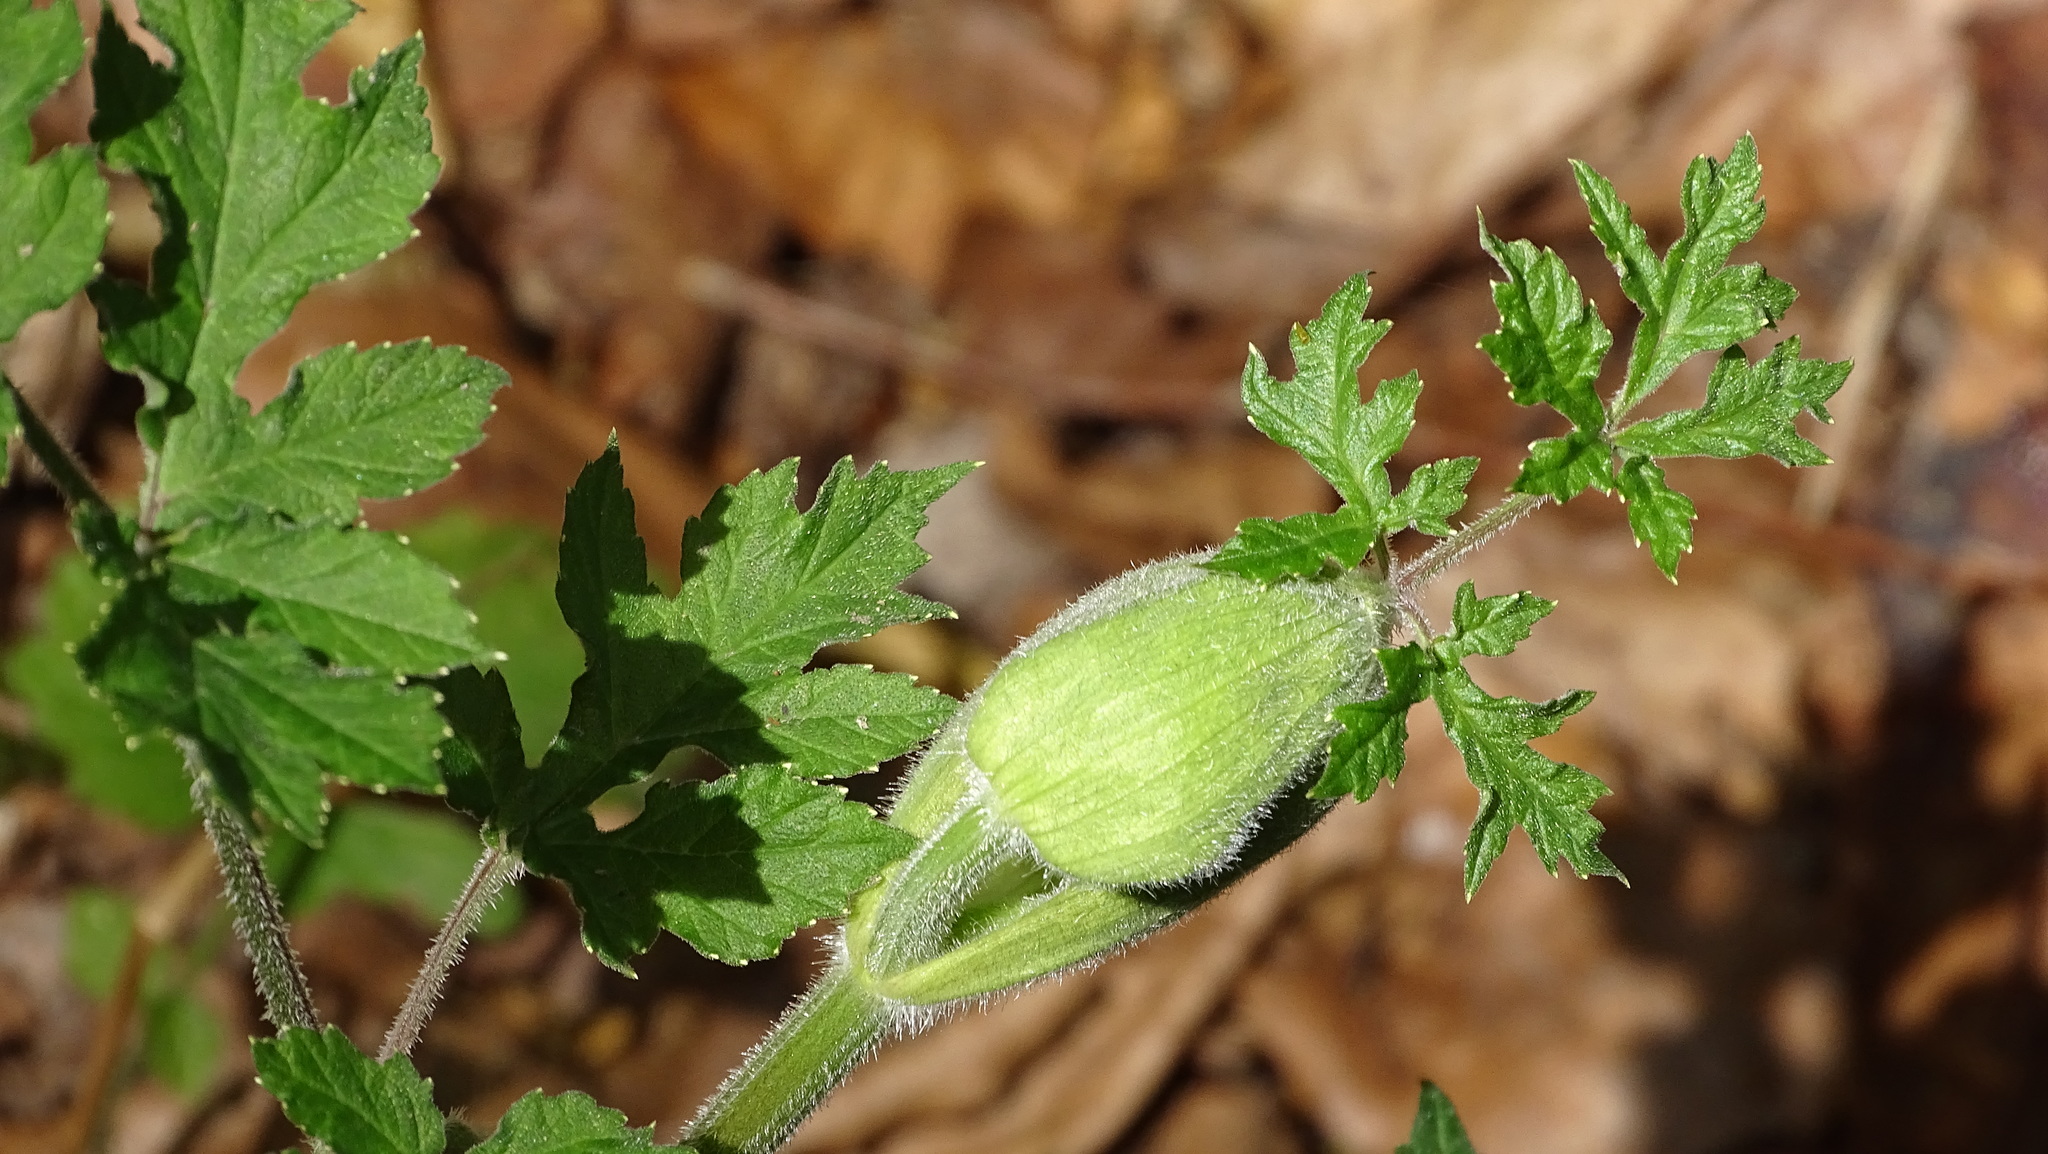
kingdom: Plantae
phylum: Tracheophyta
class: Magnoliopsida
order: Apiales
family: Apiaceae
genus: Heracleum
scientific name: Heracleum sphondylium
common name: Hogweed
